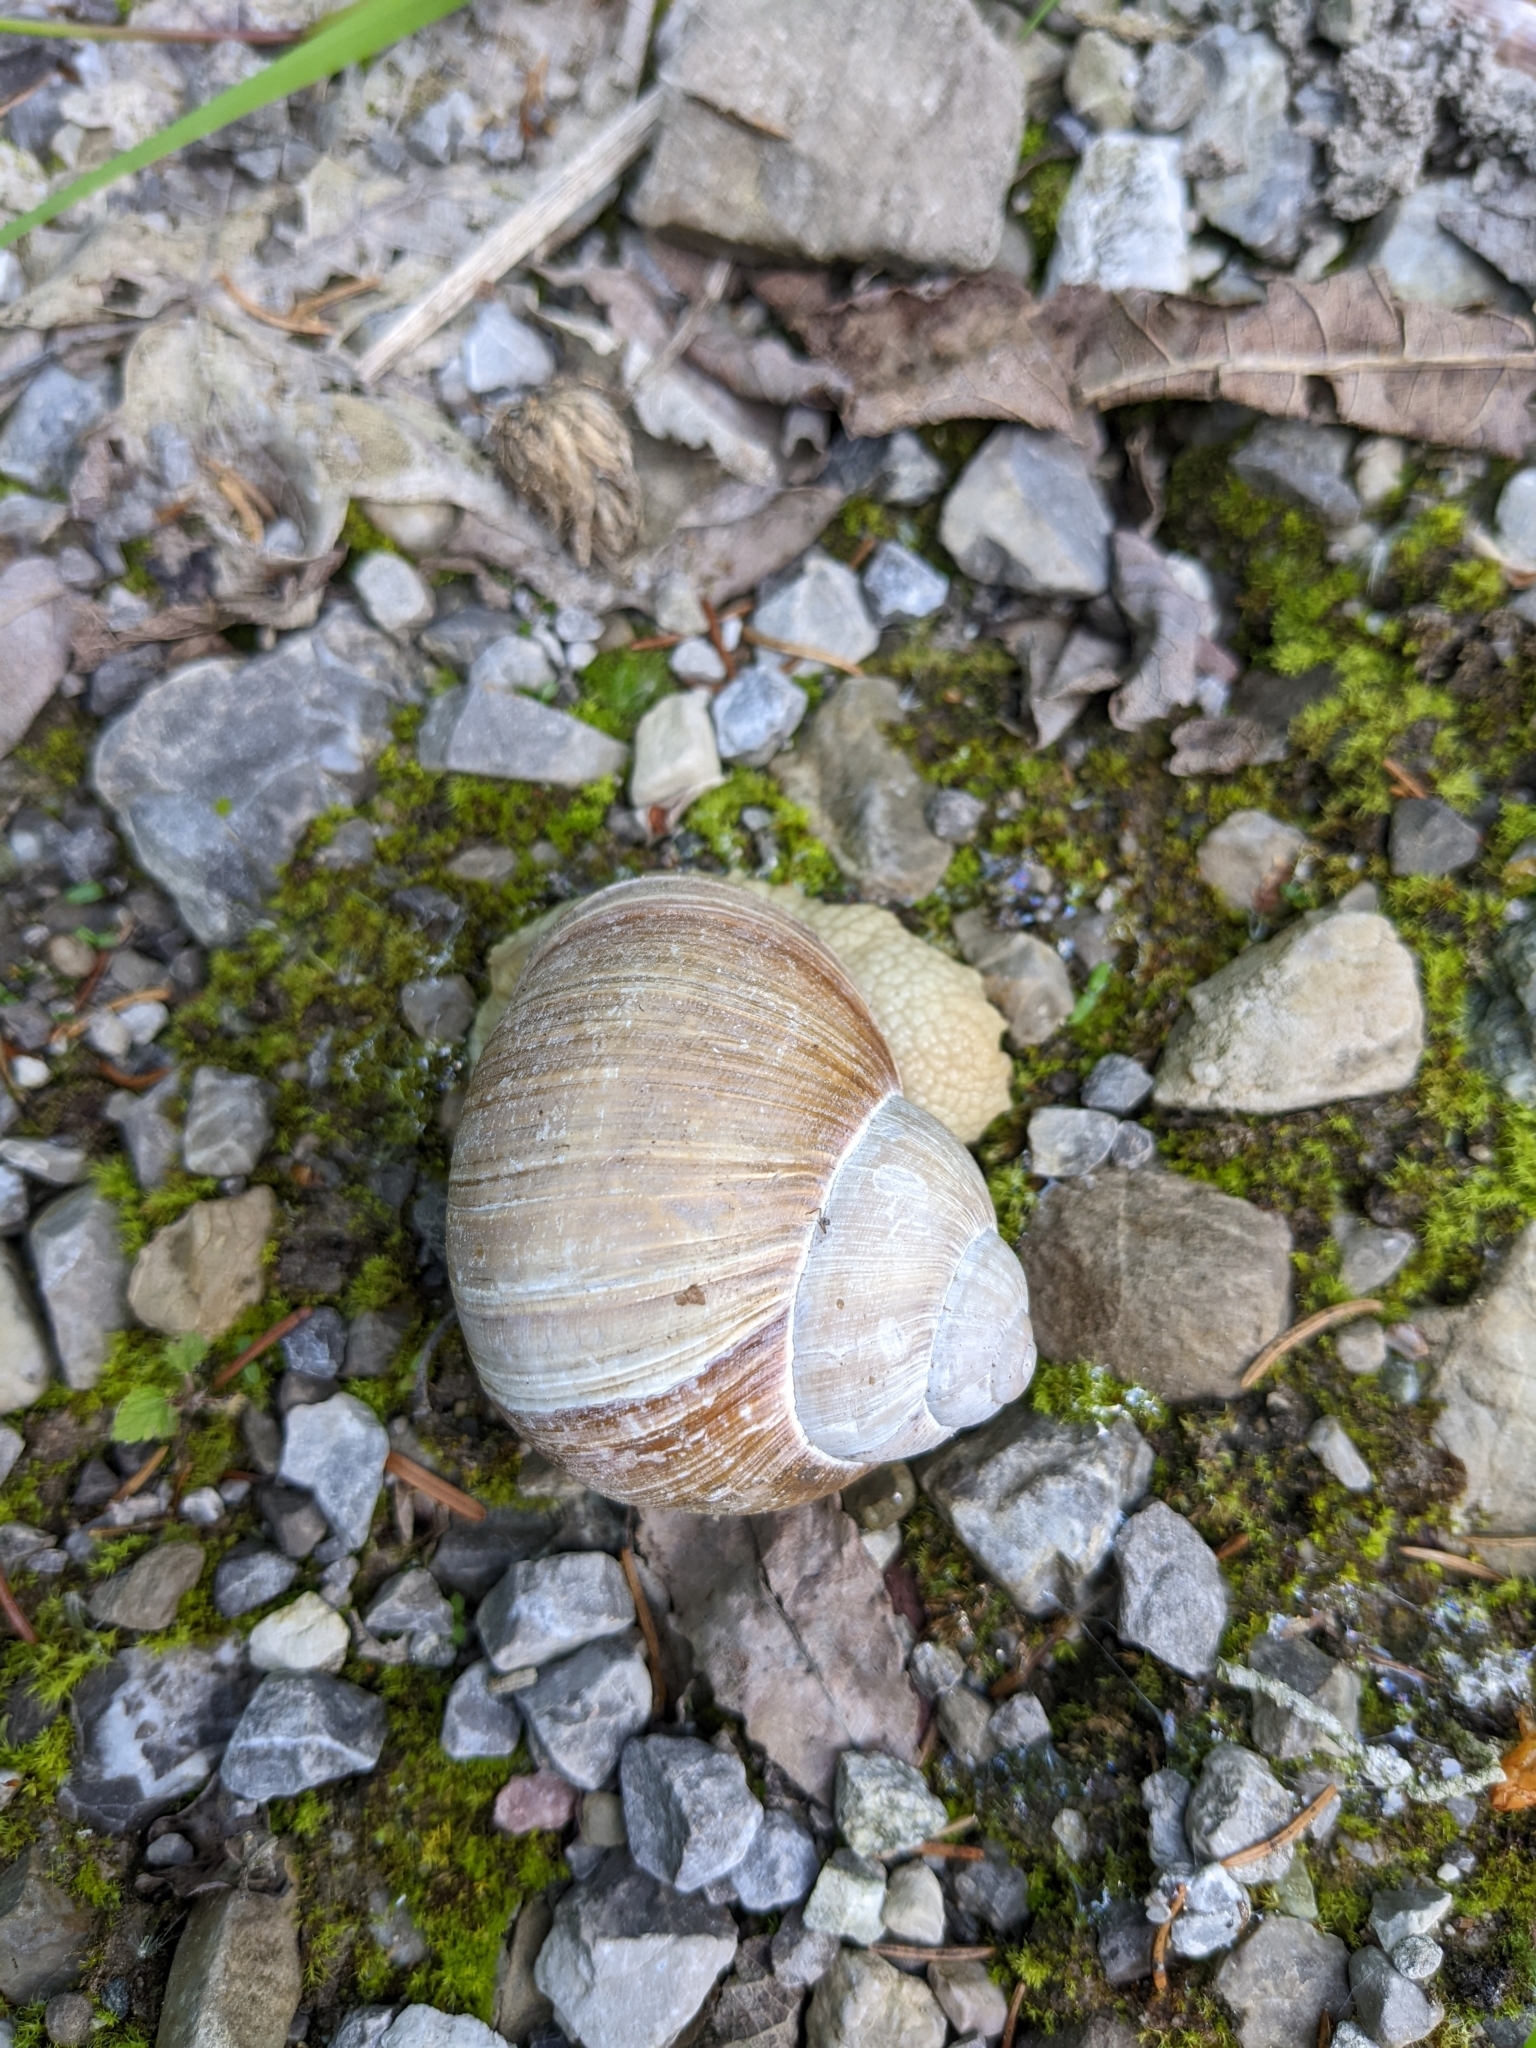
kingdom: Animalia
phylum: Mollusca
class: Gastropoda
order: Stylommatophora
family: Helicidae
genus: Helix
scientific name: Helix pomatia
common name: Roman snail
